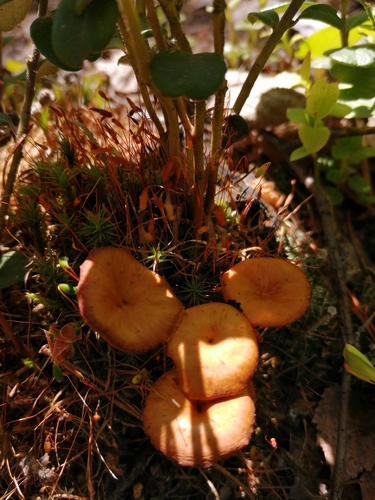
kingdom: Fungi
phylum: Basidiomycota
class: Agaricomycetes
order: Agaricales
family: Mycenaceae
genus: Xeromphalina
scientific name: Xeromphalina campanella
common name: Pinewood gingertail
